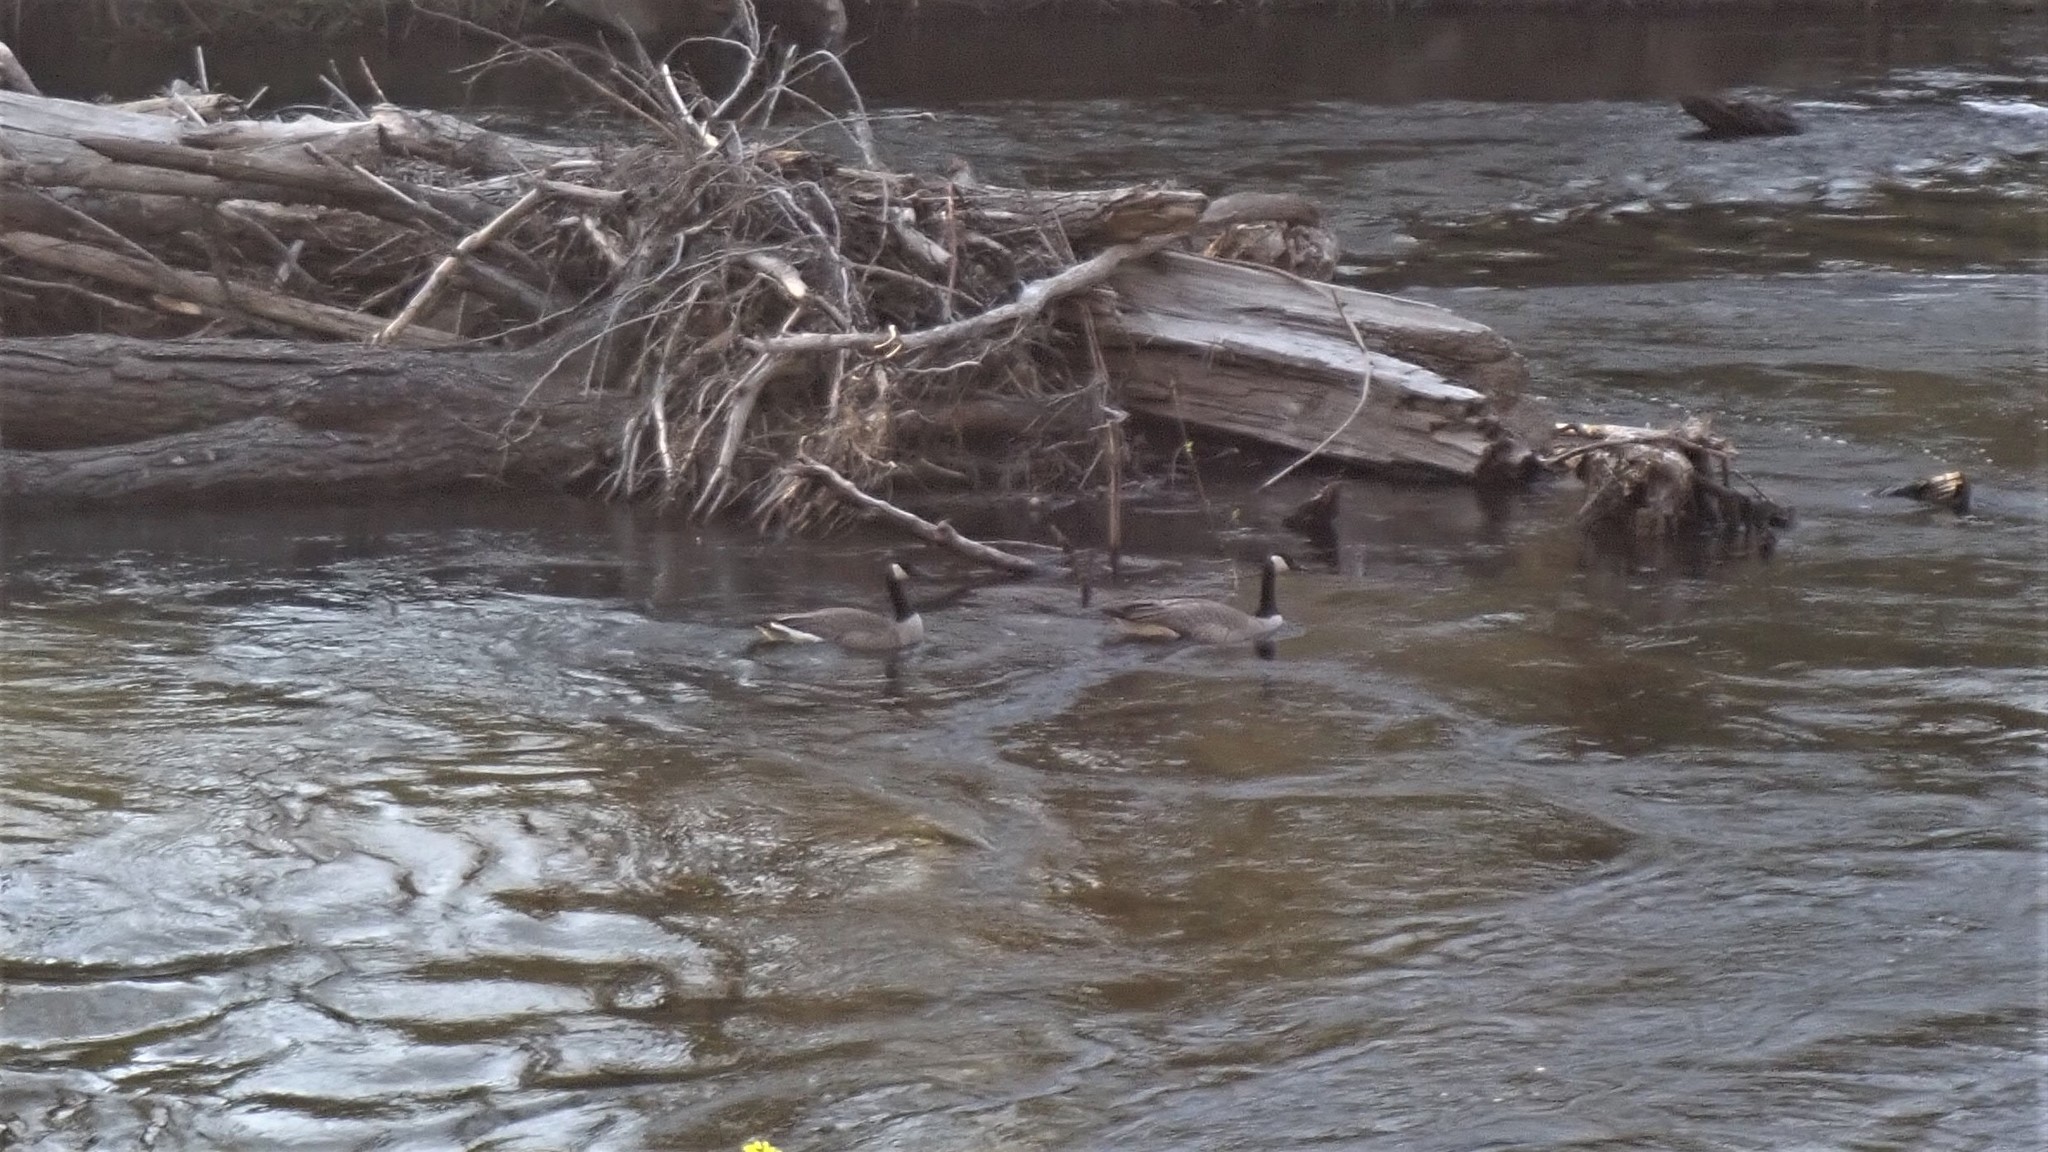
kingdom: Animalia
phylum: Chordata
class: Aves
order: Anseriformes
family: Anatidae
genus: Branta
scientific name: Branta canadensis
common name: Canada goose
